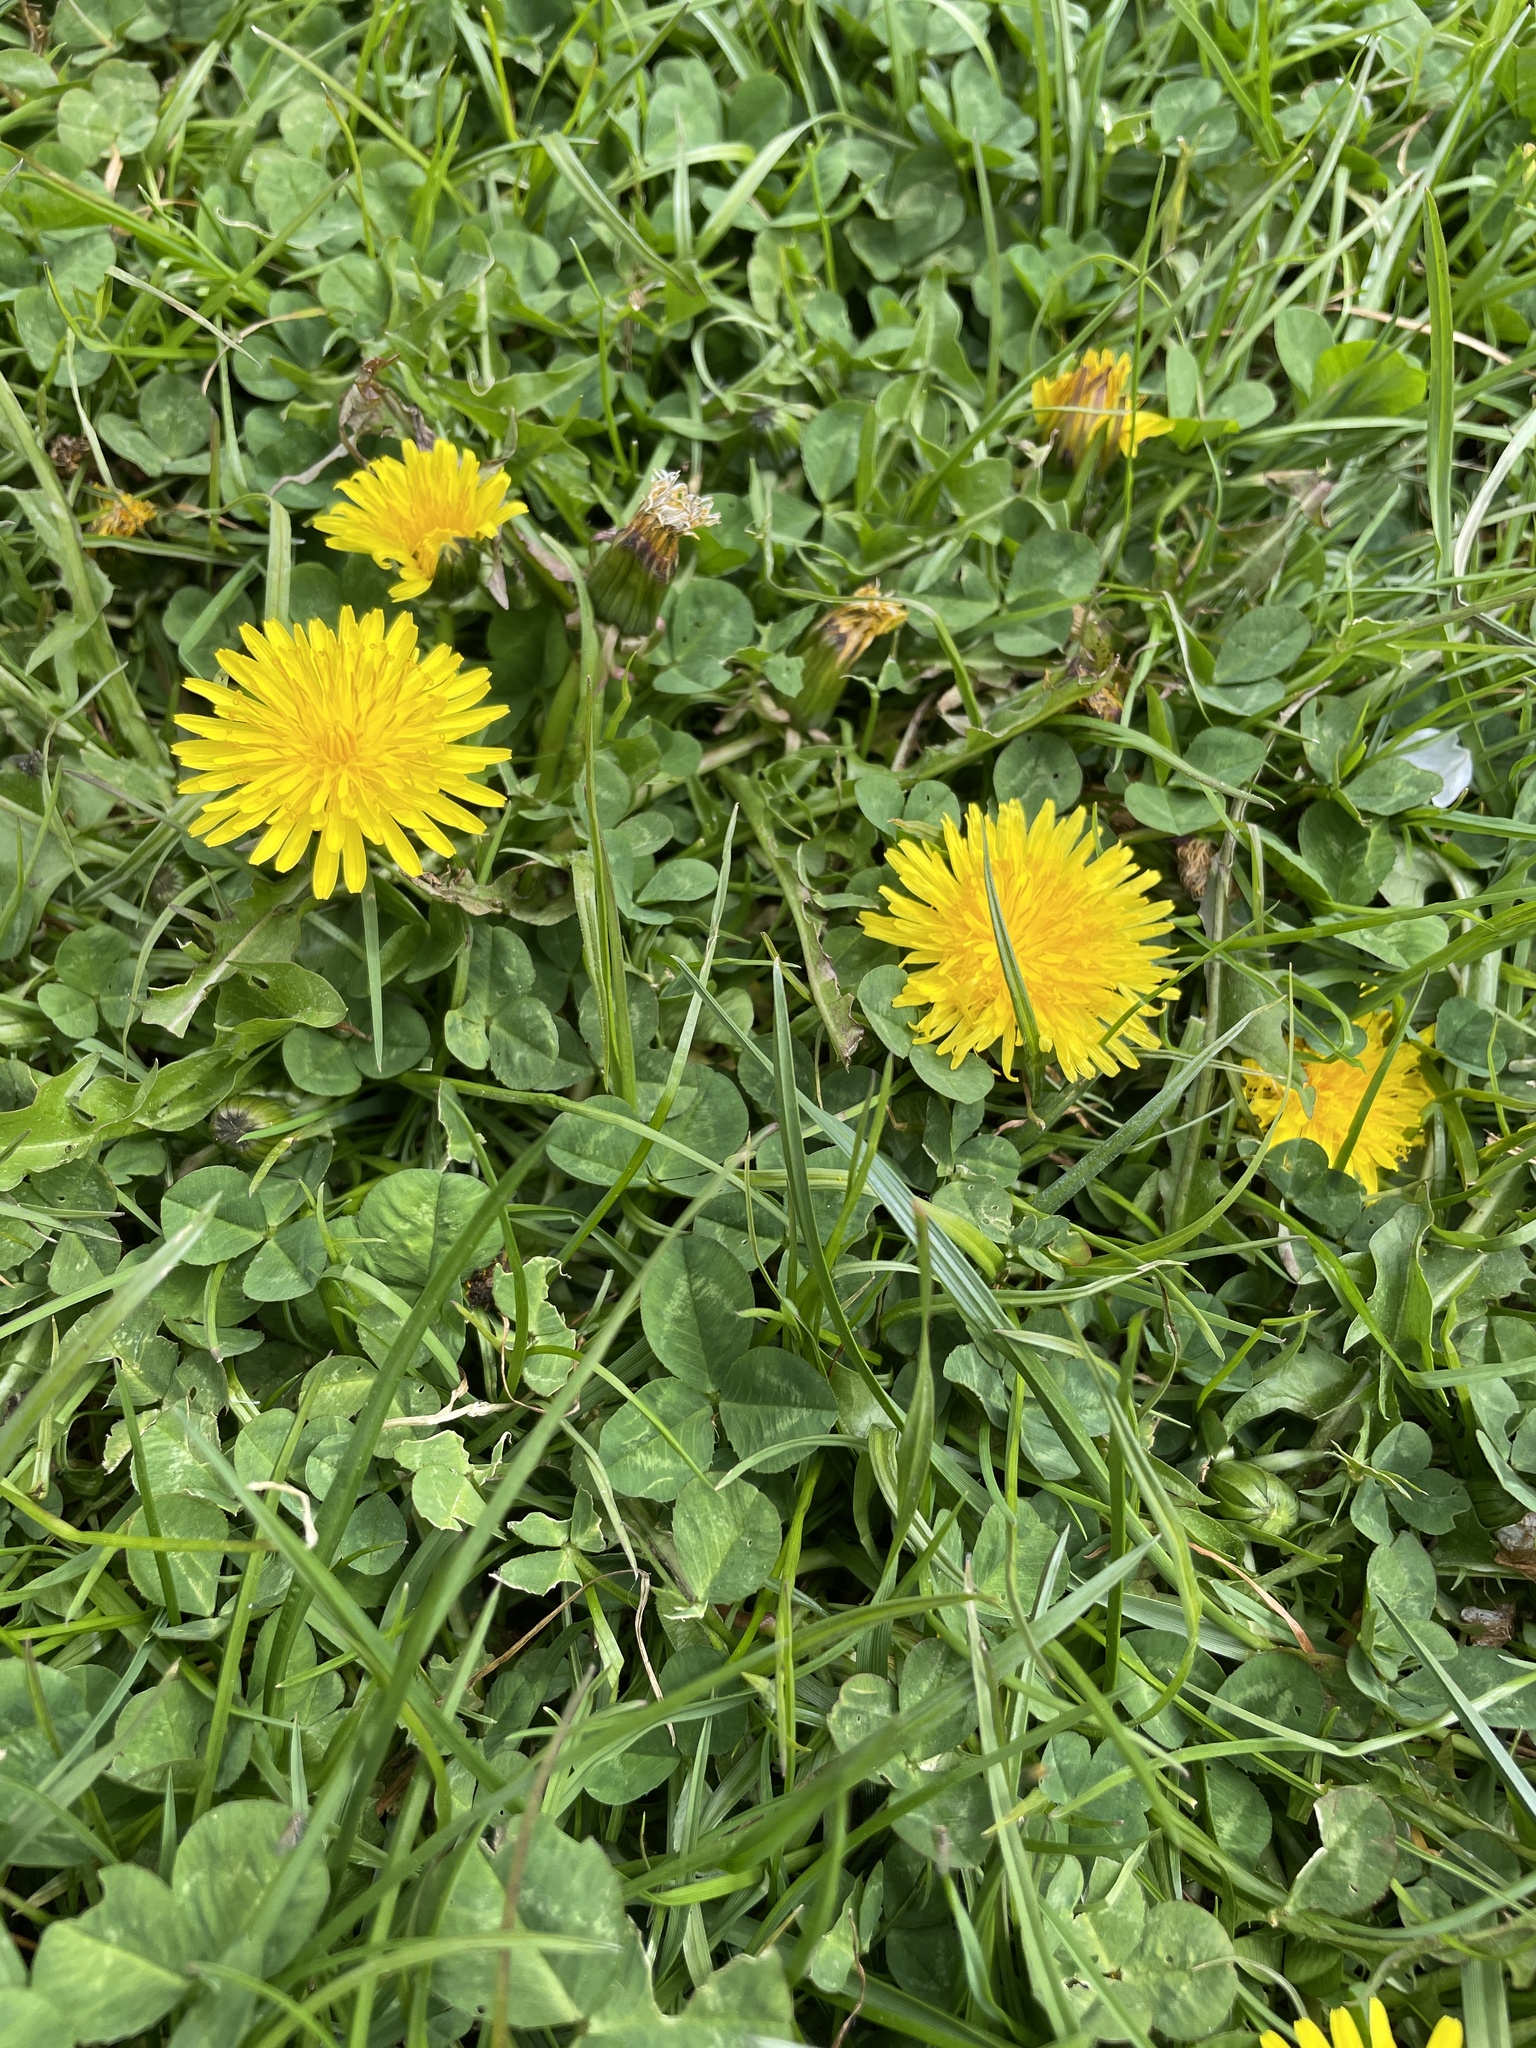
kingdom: Plantae
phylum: Tracheophyta
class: Magnoliopsida
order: Asterales
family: Asteraceae
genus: Taraxacum
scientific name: Taraxacum officinale
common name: Common dandelion
